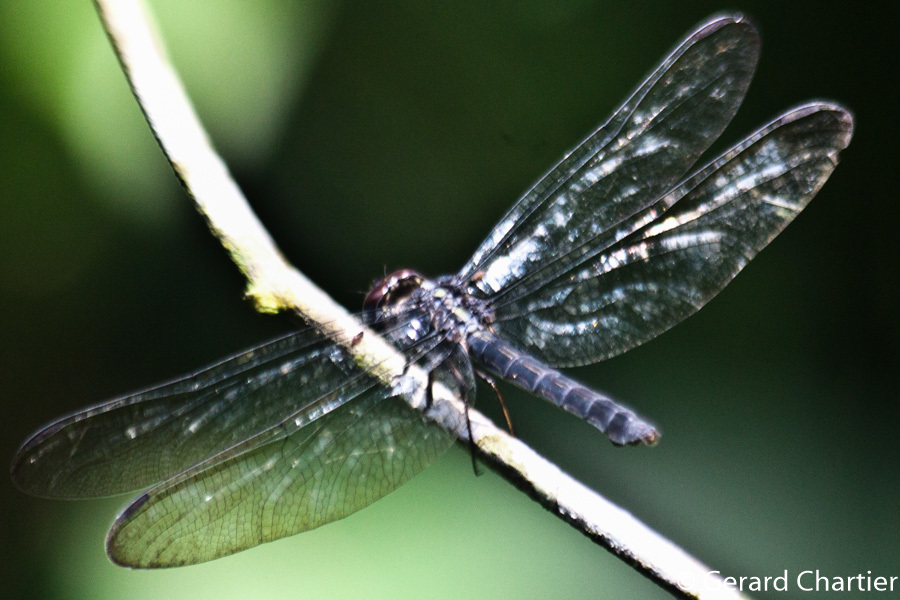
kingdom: Animalia
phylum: Arthropoda
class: Insecta
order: Odonata
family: Libellulidae
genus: Cratilla
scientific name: Cratilla lineata
